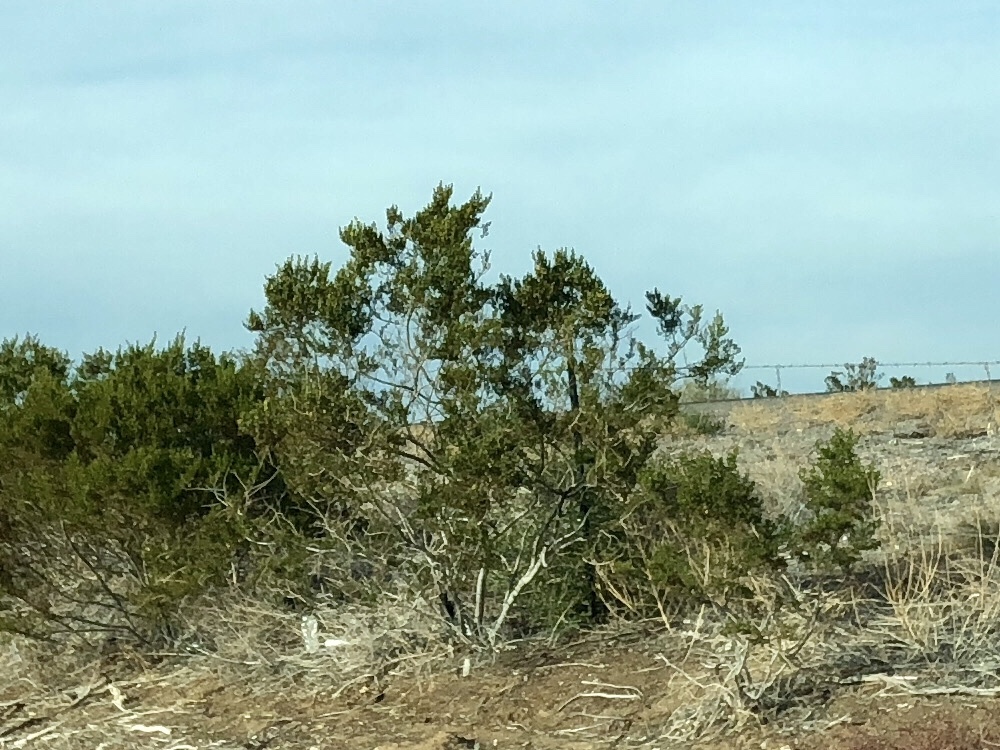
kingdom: Plantae
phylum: Tracheophyta
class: Magnoliopsida
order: Zygophyllales
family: Zygophyllaceae
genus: Larrea
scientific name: Larrea tridentata
